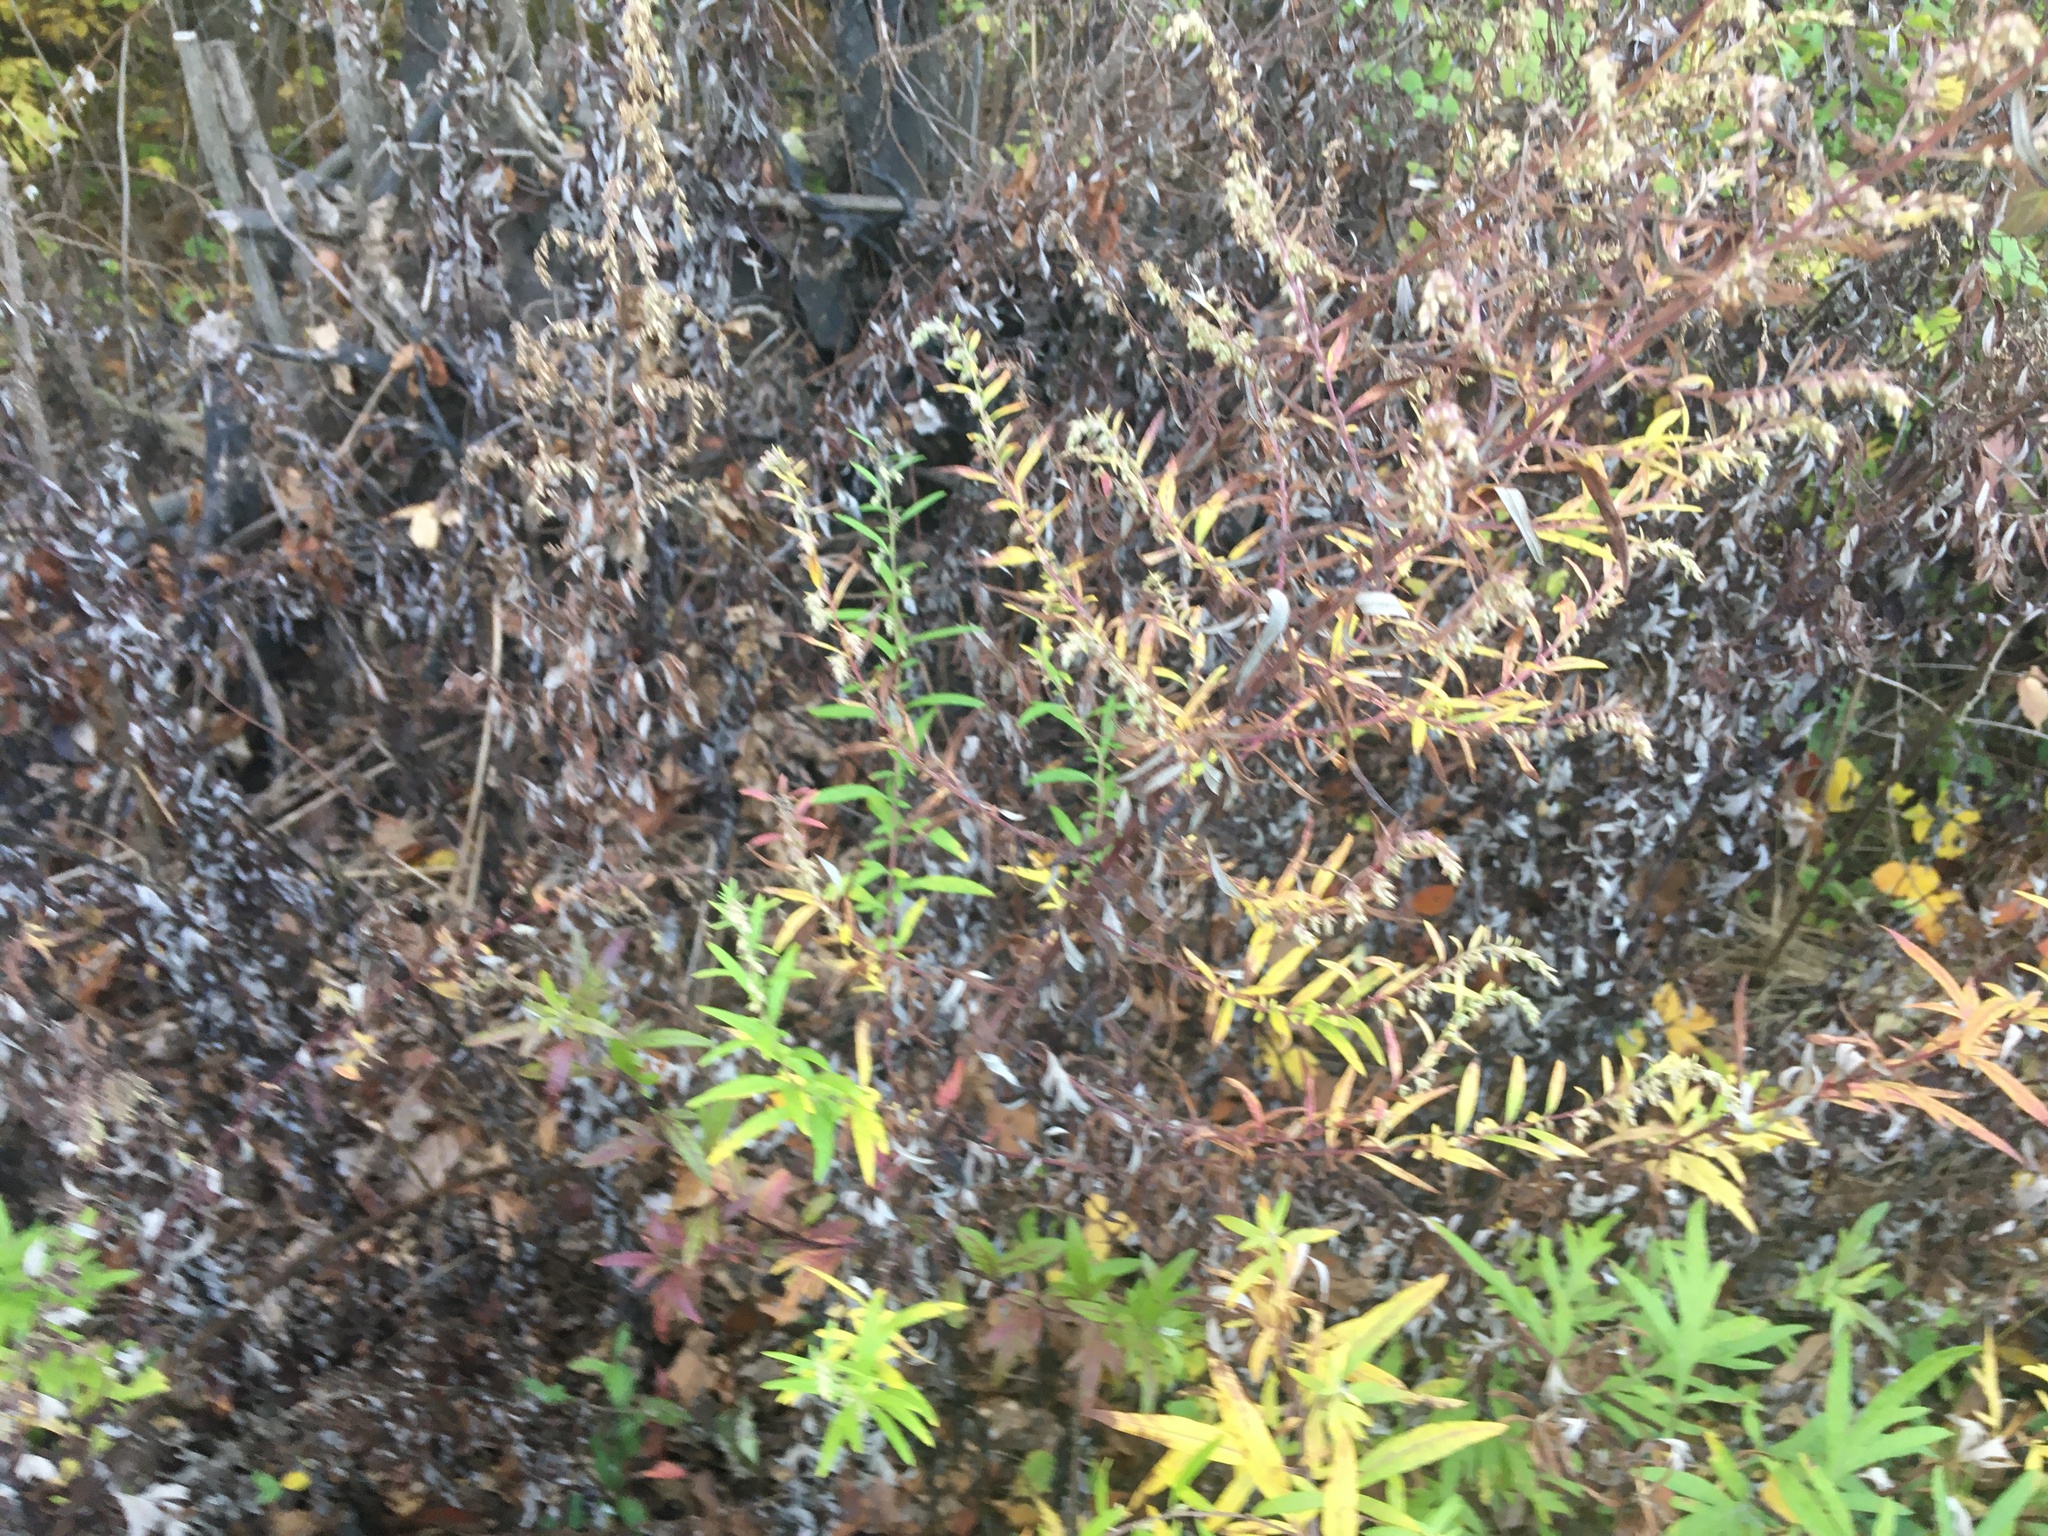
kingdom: Plantae
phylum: Tracheophyta
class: Magnoliopsida
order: Asterales
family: Asteraceae
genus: Artemisia
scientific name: Artemisia vulgaris
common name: Mugwort
